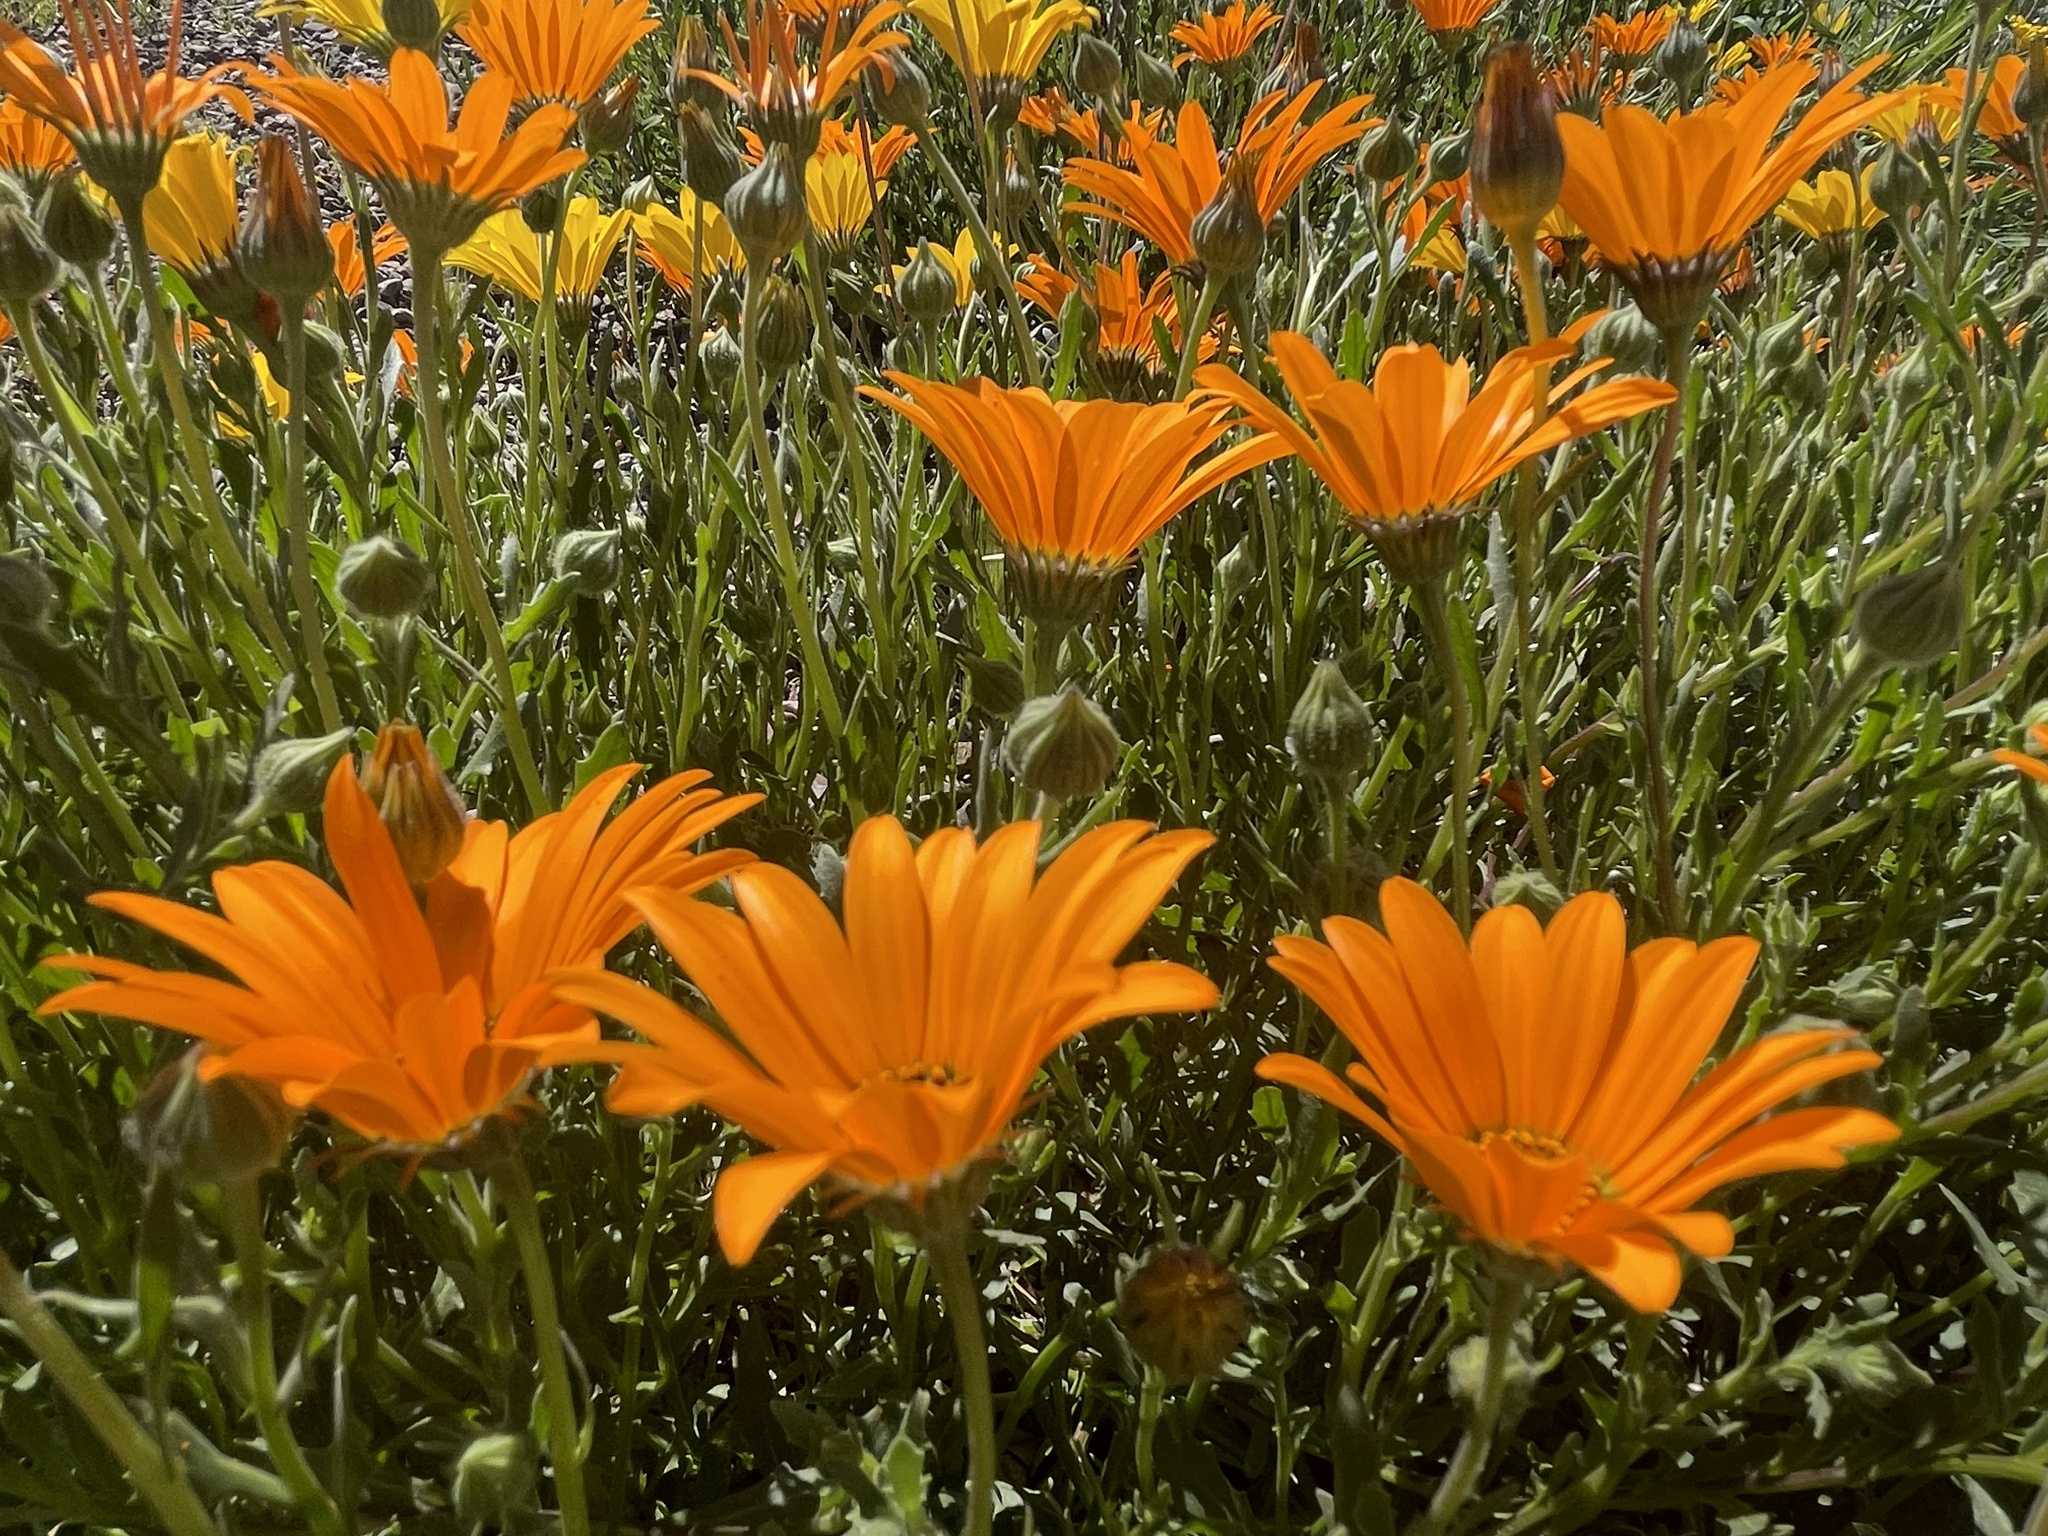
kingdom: Animalia
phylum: Arthropoda
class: Insecta
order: Hymenoptera
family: Apidae
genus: Apis
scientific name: Apis mellifera
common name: Honey bee
